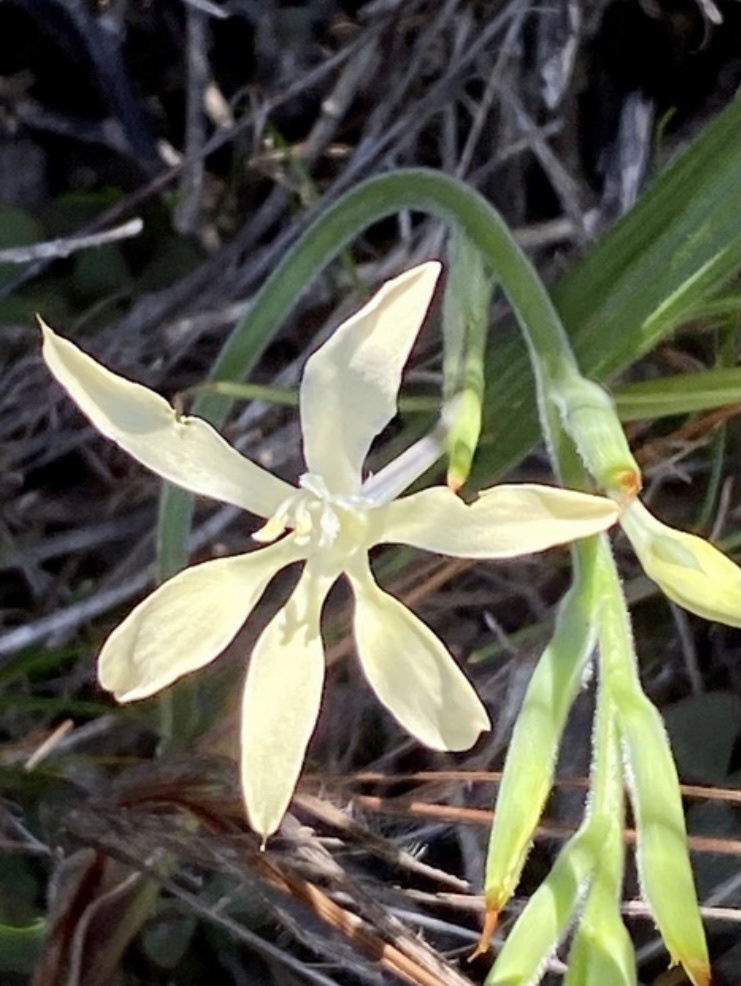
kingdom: Plantae
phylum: Tracheophyta
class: Liliopsida
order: Asparagales
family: Iridaceae
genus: Babiana
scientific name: Babiana tubiflora
